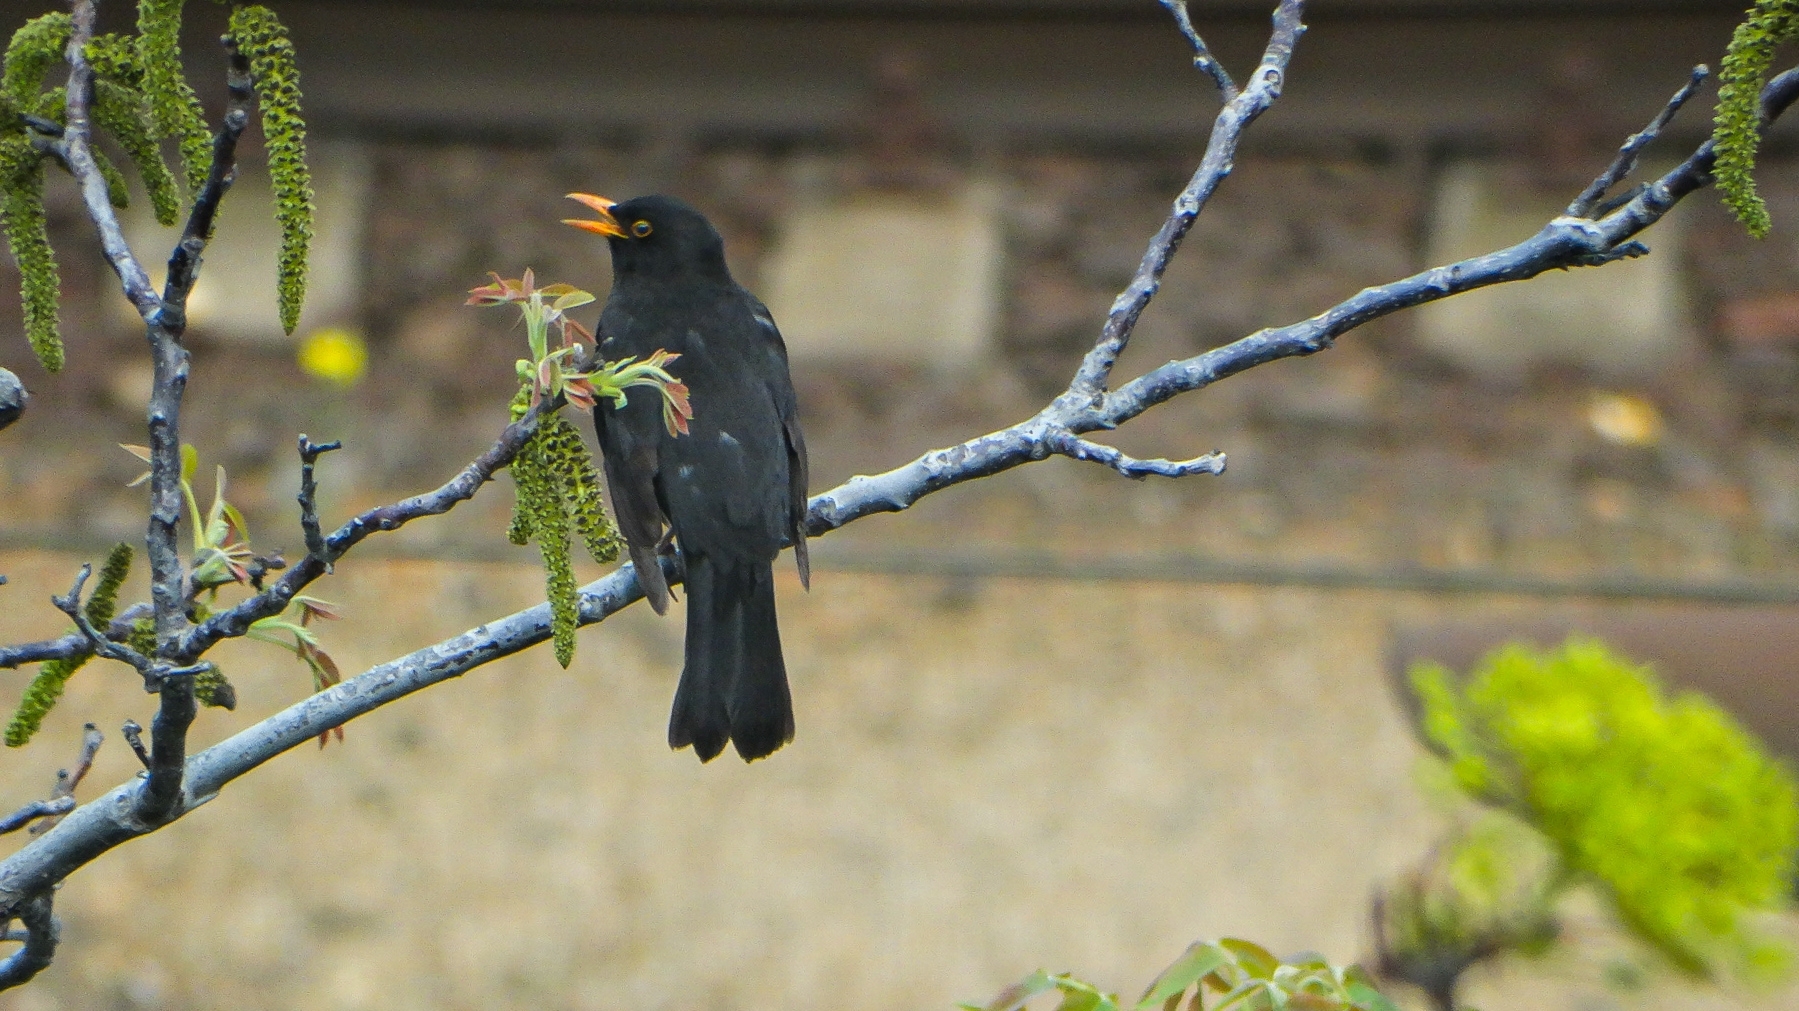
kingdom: Animalia
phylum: Chordata
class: Aves
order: Passeriformes
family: Turdidae
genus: Turdus
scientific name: Turdus merula
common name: Common blackbird
